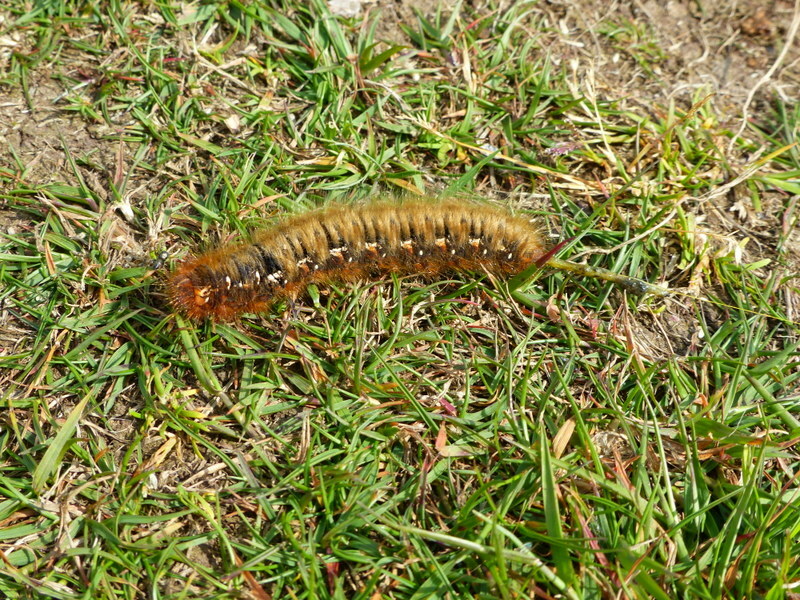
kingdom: Animalia
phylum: Arthropoda
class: Insecta
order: Lepidoptera
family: Lasiocampidae
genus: Lasiocampa
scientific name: Lasiocampa quercus
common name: Oak eggar
